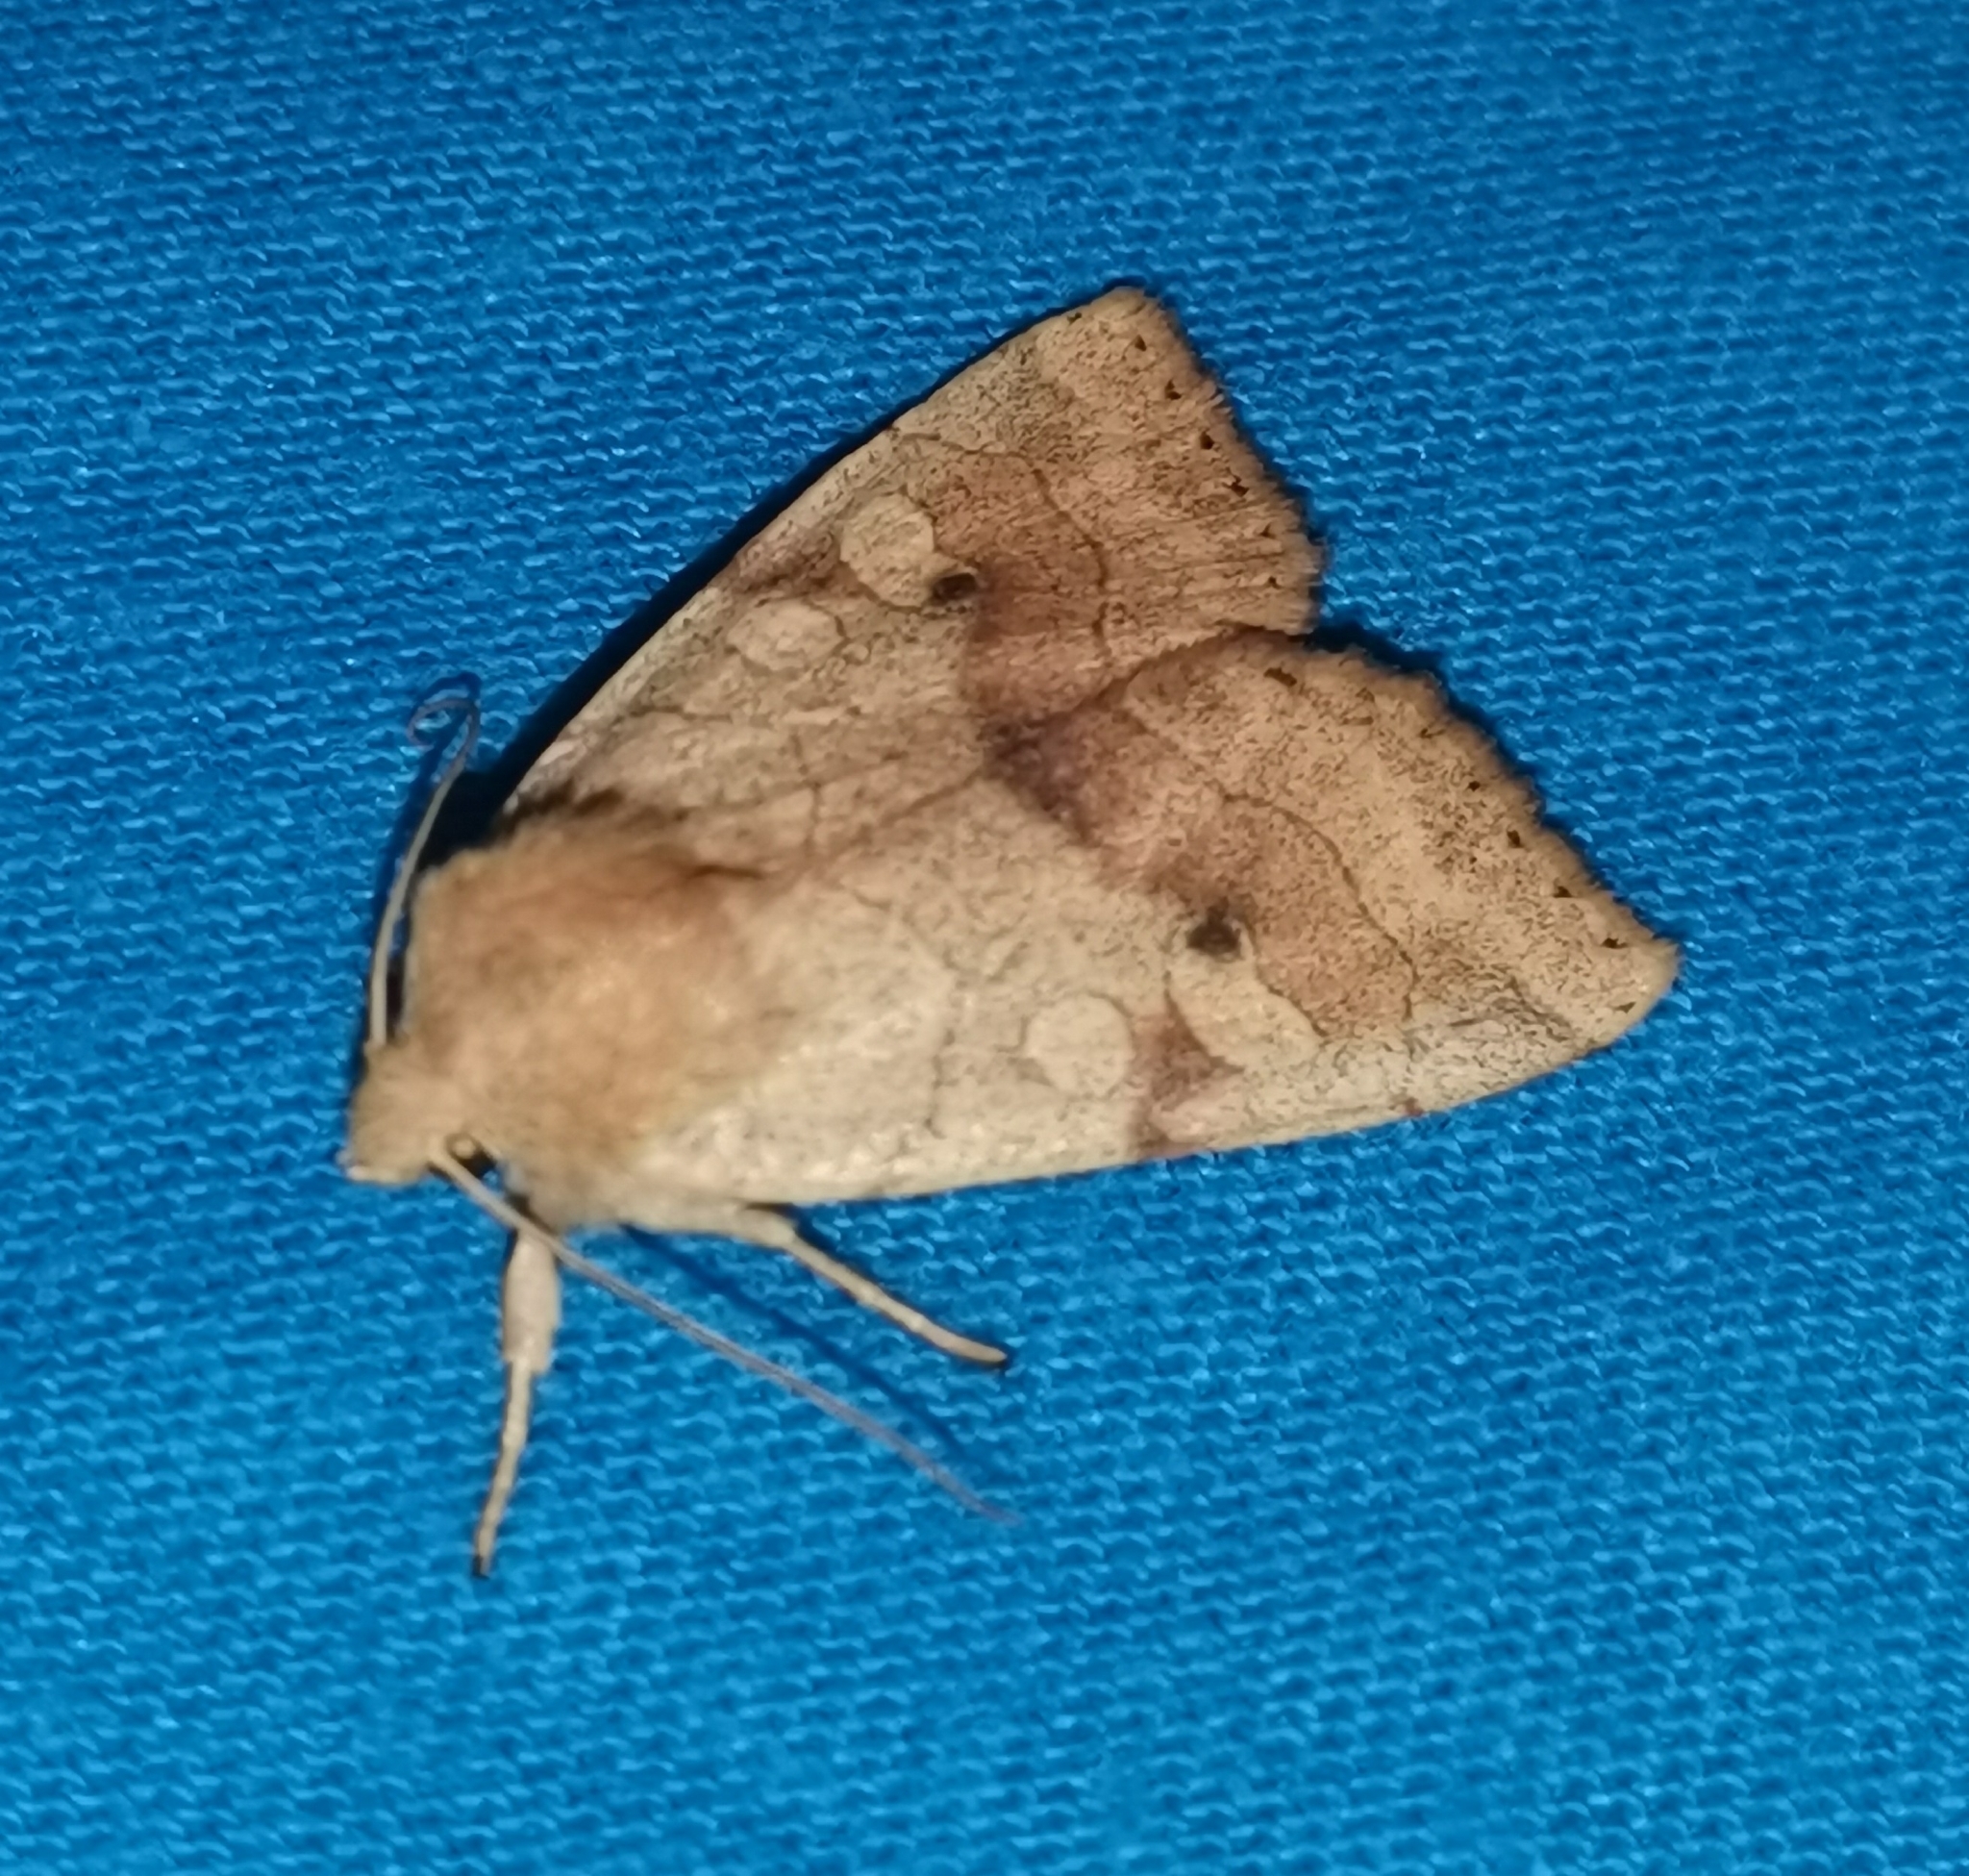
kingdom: Animalia
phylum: Arthropoda
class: Insecta
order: Lepidoptera
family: Noctuidae
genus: Enargia
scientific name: Enargia paleacea
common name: Angle-striped sallow
